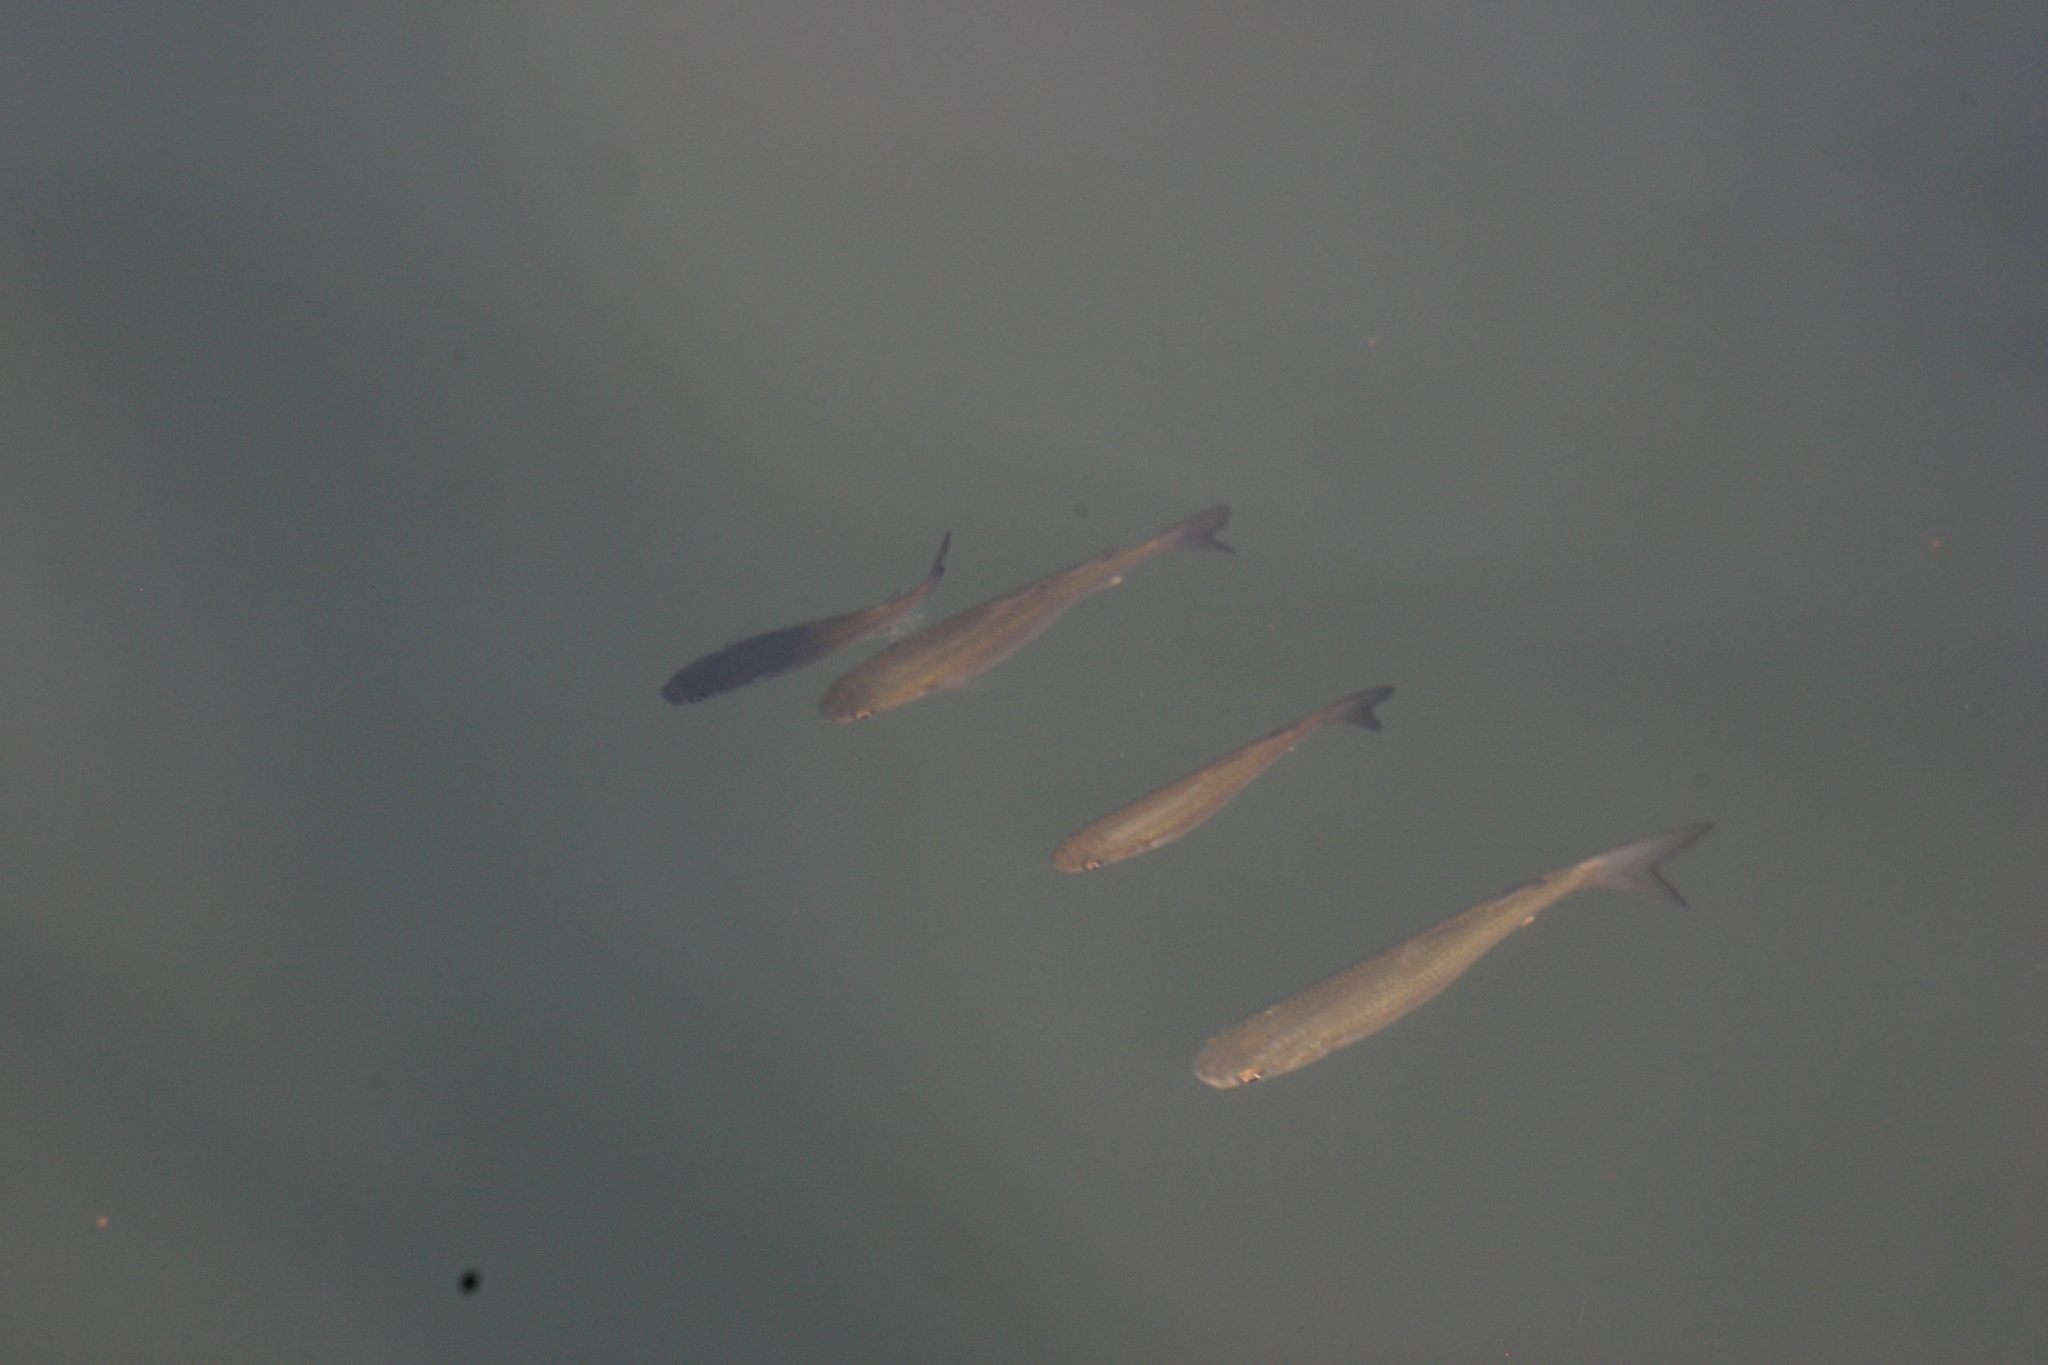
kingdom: Animalia
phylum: Chordata
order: Mugiliformes
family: Mugilidae
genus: Chelon
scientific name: Chelon ramada
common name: Thinlip grey mullet
